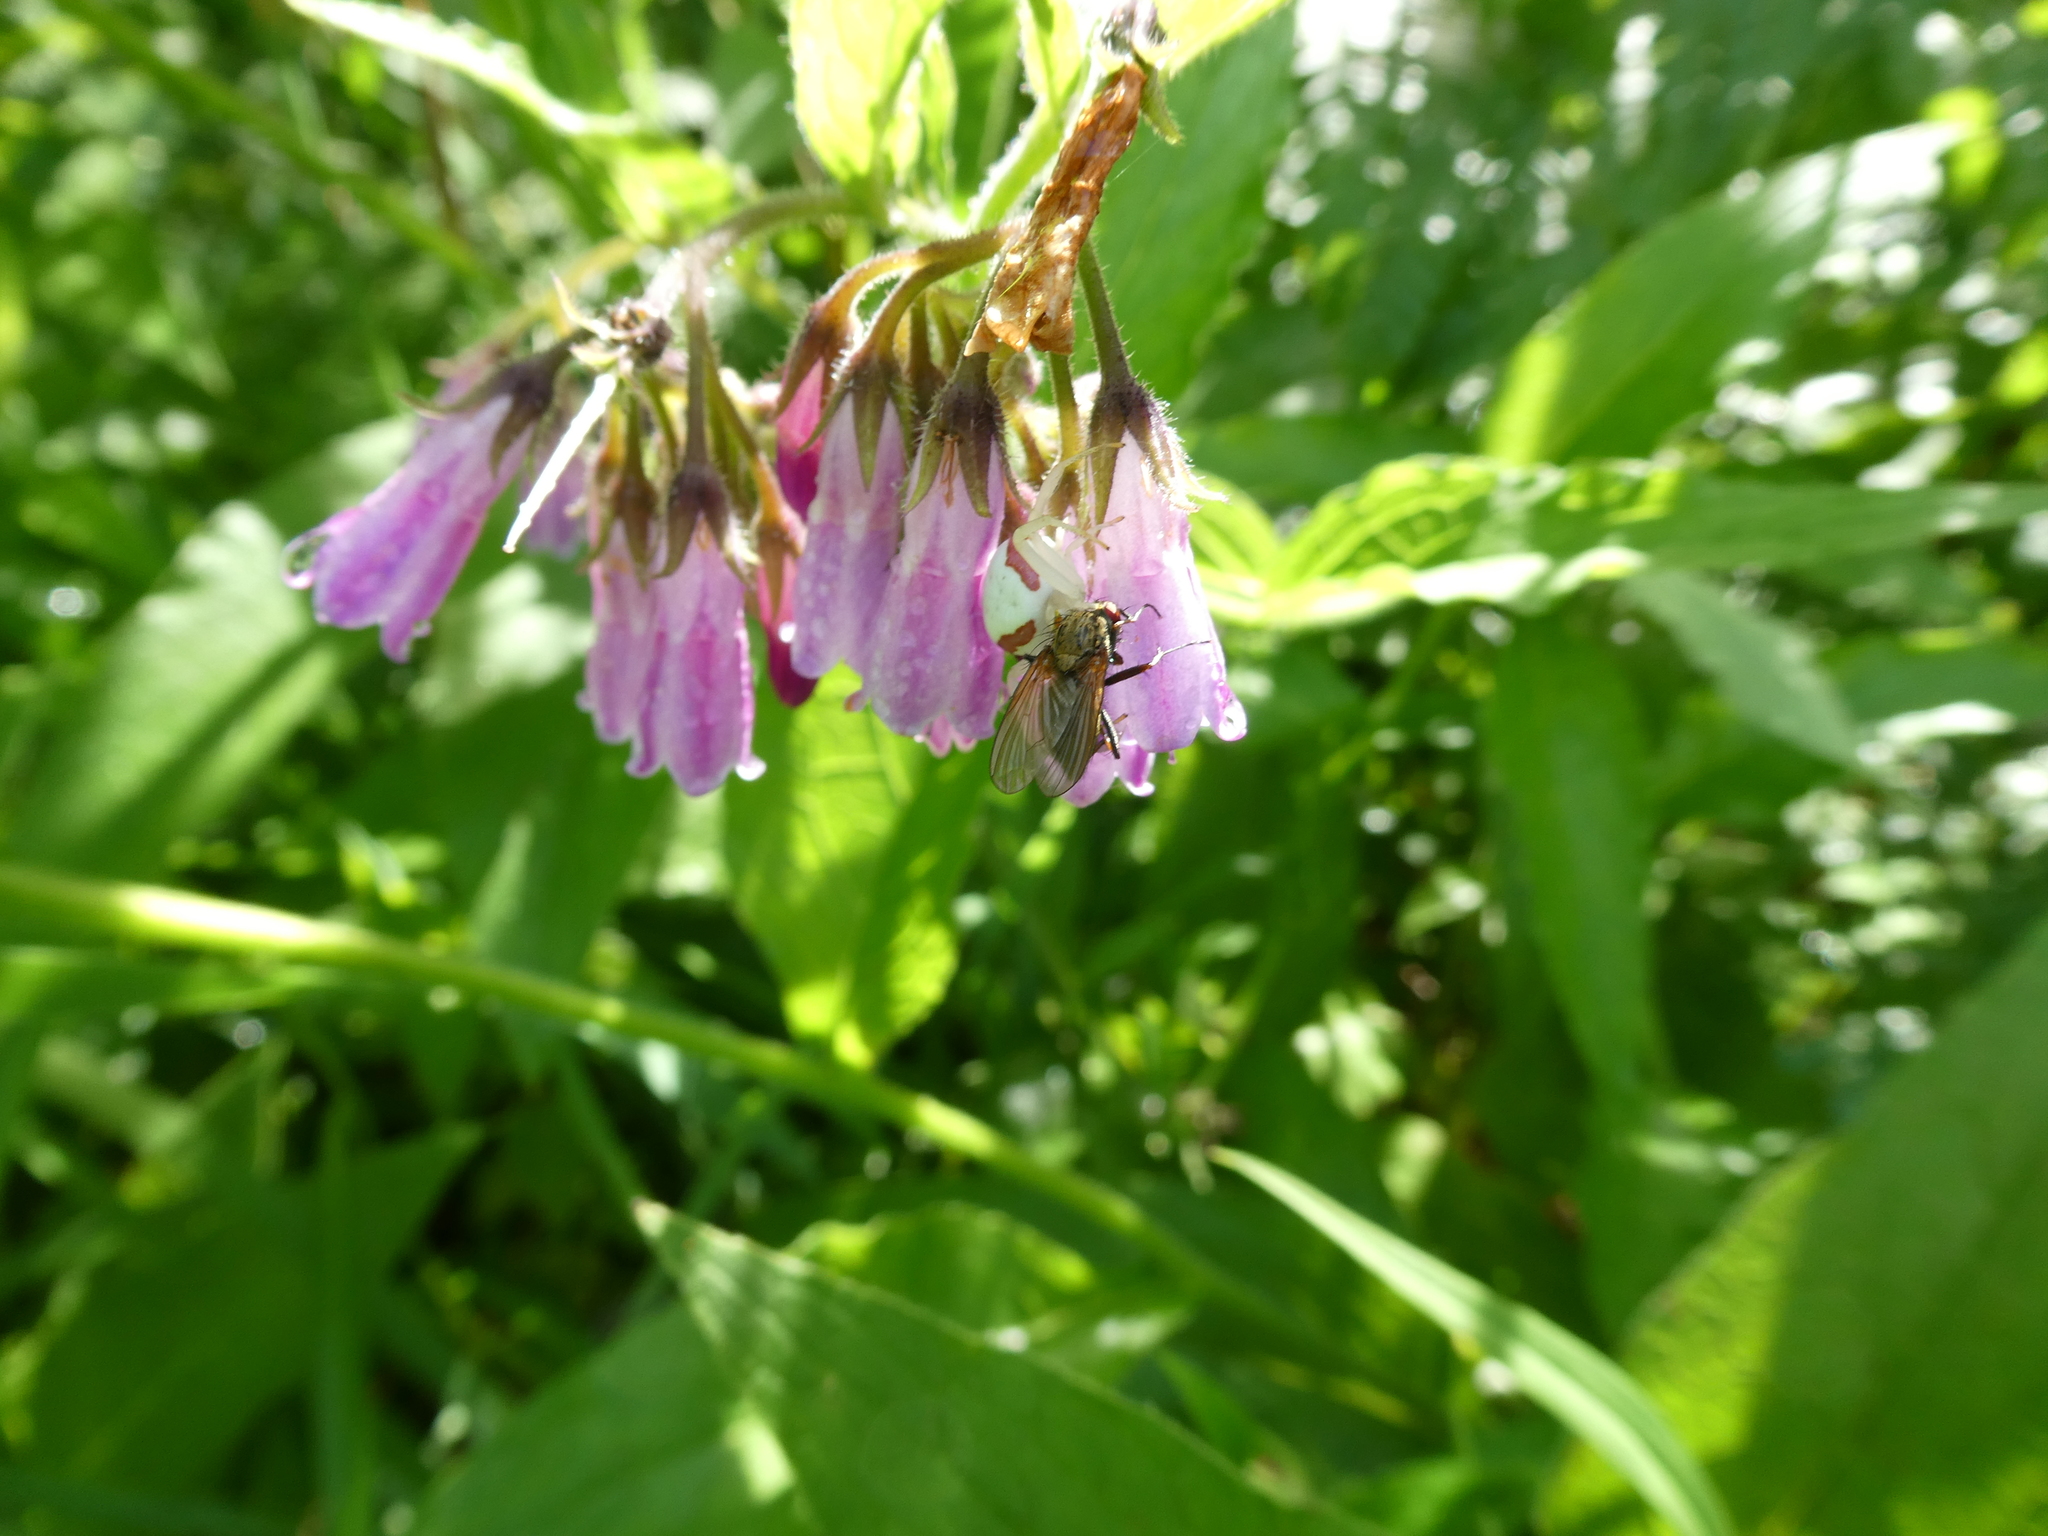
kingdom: Animalia
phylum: Arthropoda
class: Arachnida
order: Araneae
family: Thomisidae
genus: Misumena
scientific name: Misumena vatia
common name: Goldenrod crab spider
